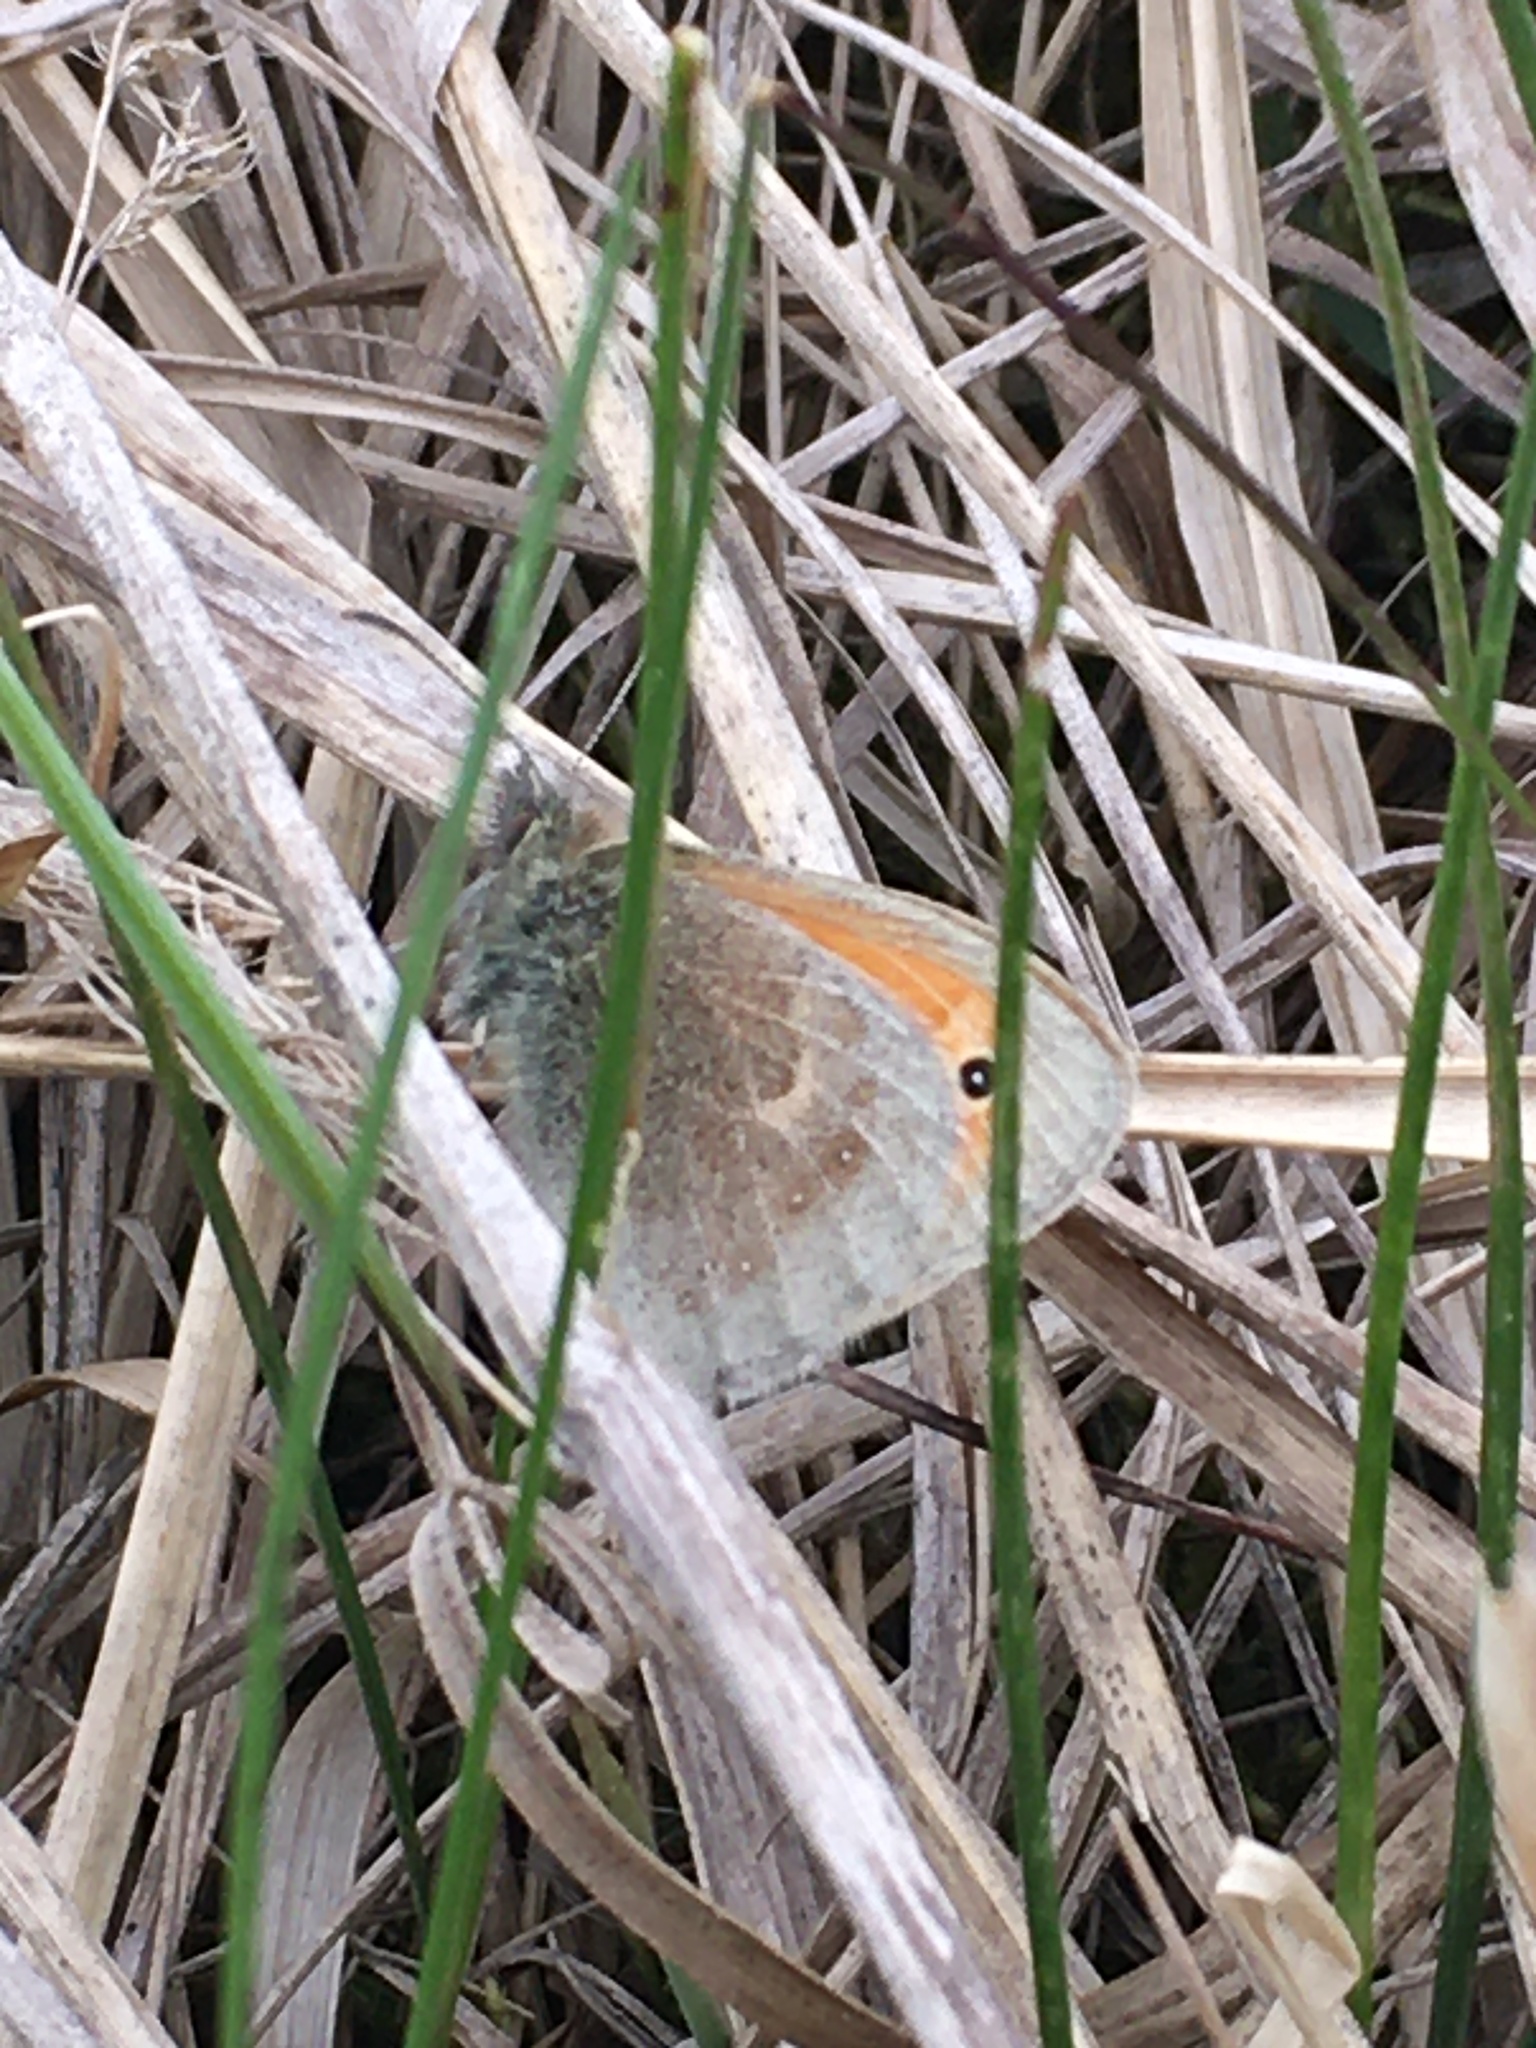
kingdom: Animalia
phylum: Arthropoda
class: Insecta
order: Lepidoptera
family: Nymphalidae
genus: Coenonympha
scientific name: Coenonympha pamphilus
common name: Small heath
